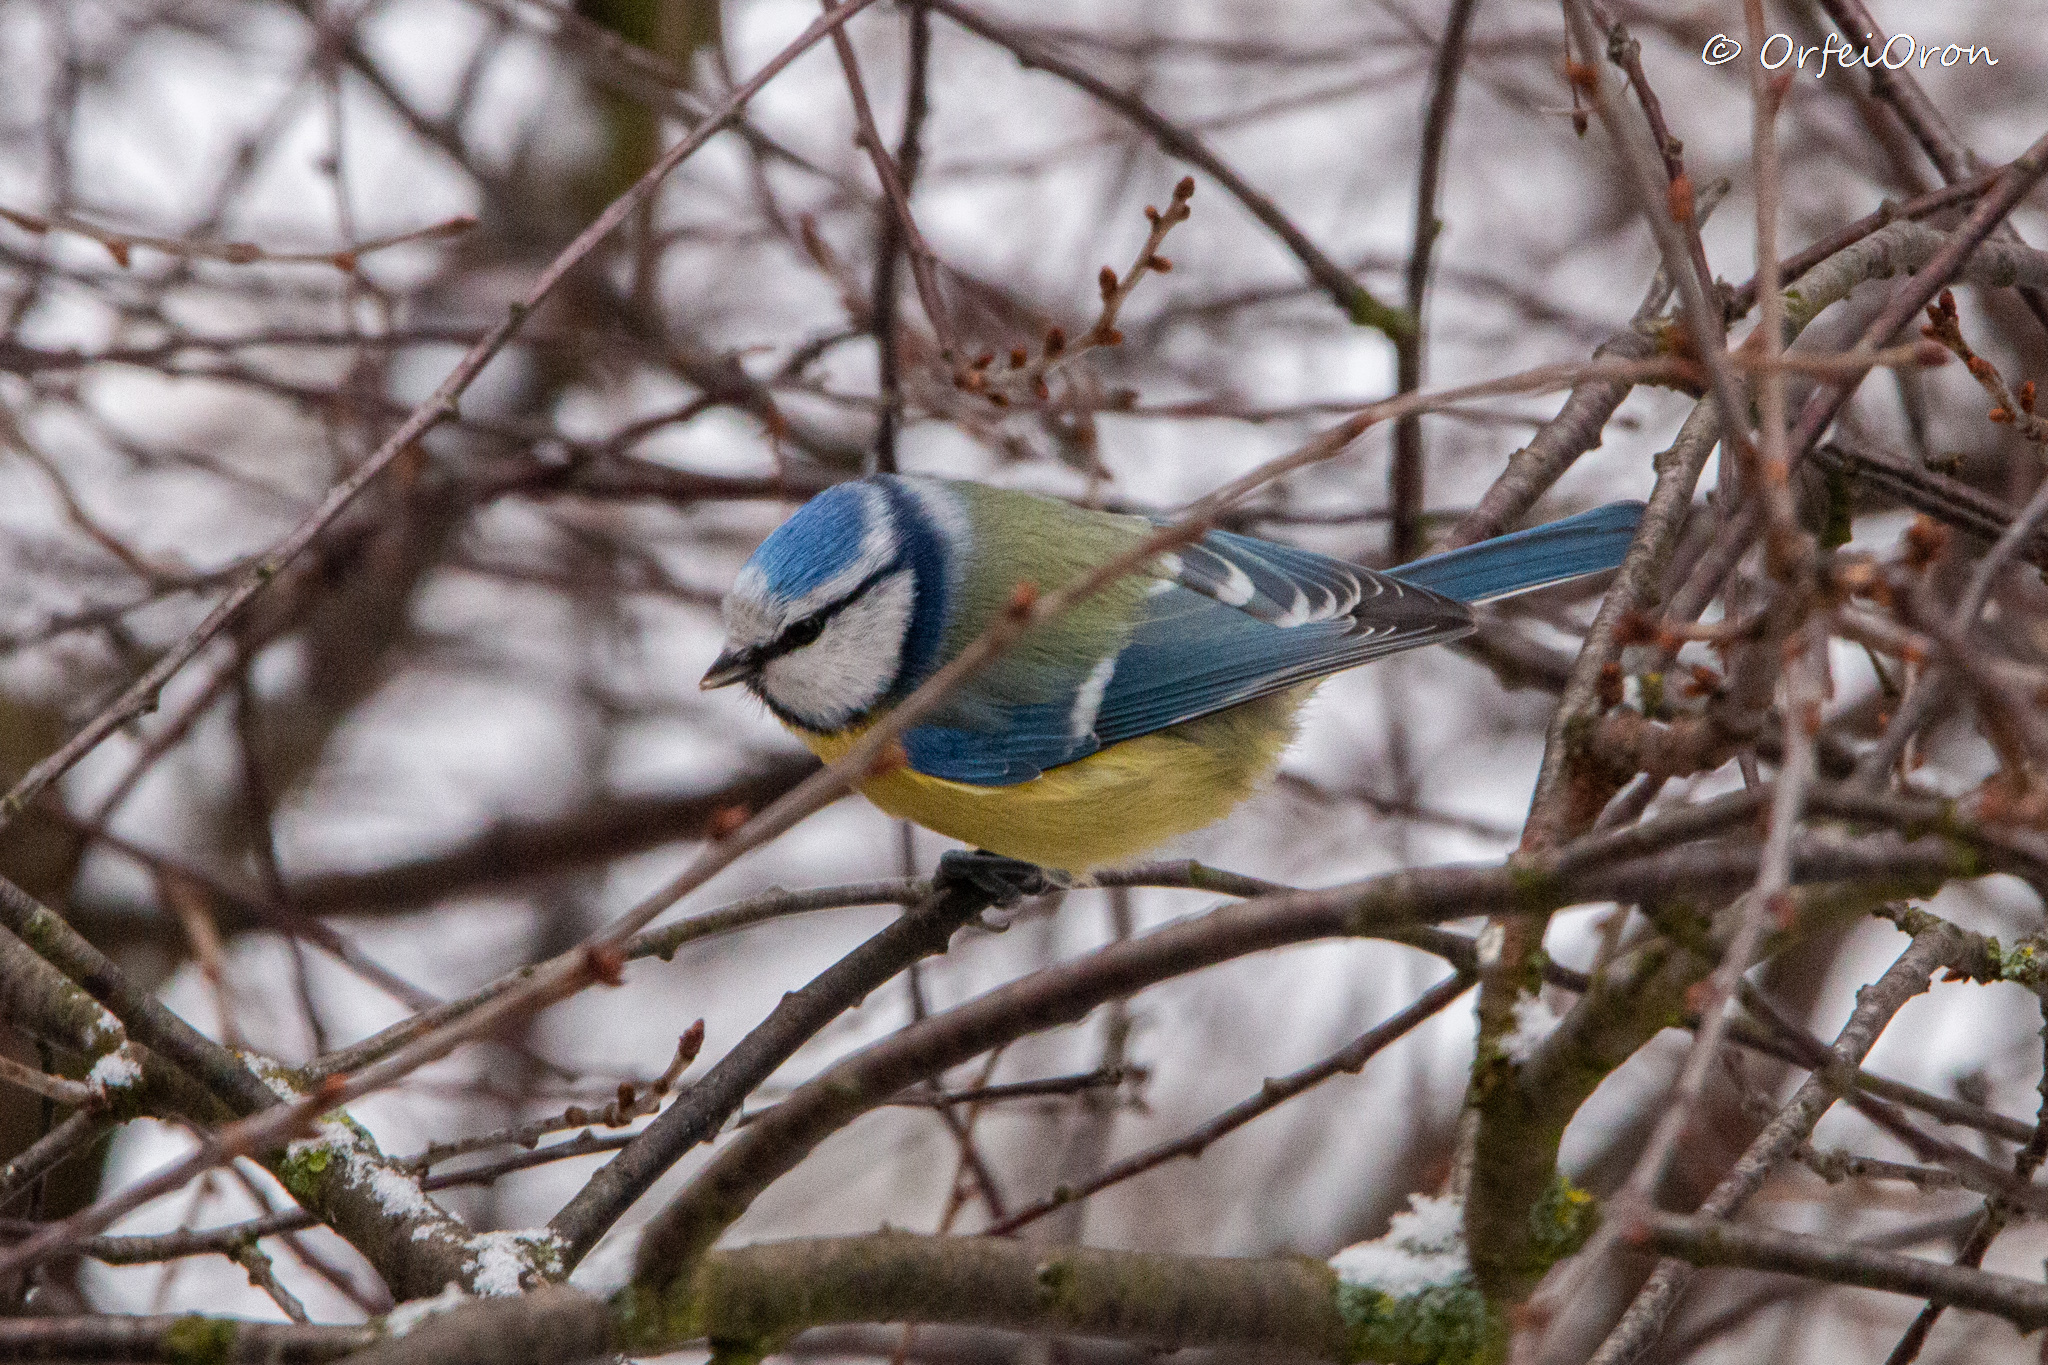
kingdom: Animalia
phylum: Chordata
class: Aves
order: Passeriformes
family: Paridae
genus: Cyanistes
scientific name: Cyanistes caeruleus
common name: Eurasian blue tit
